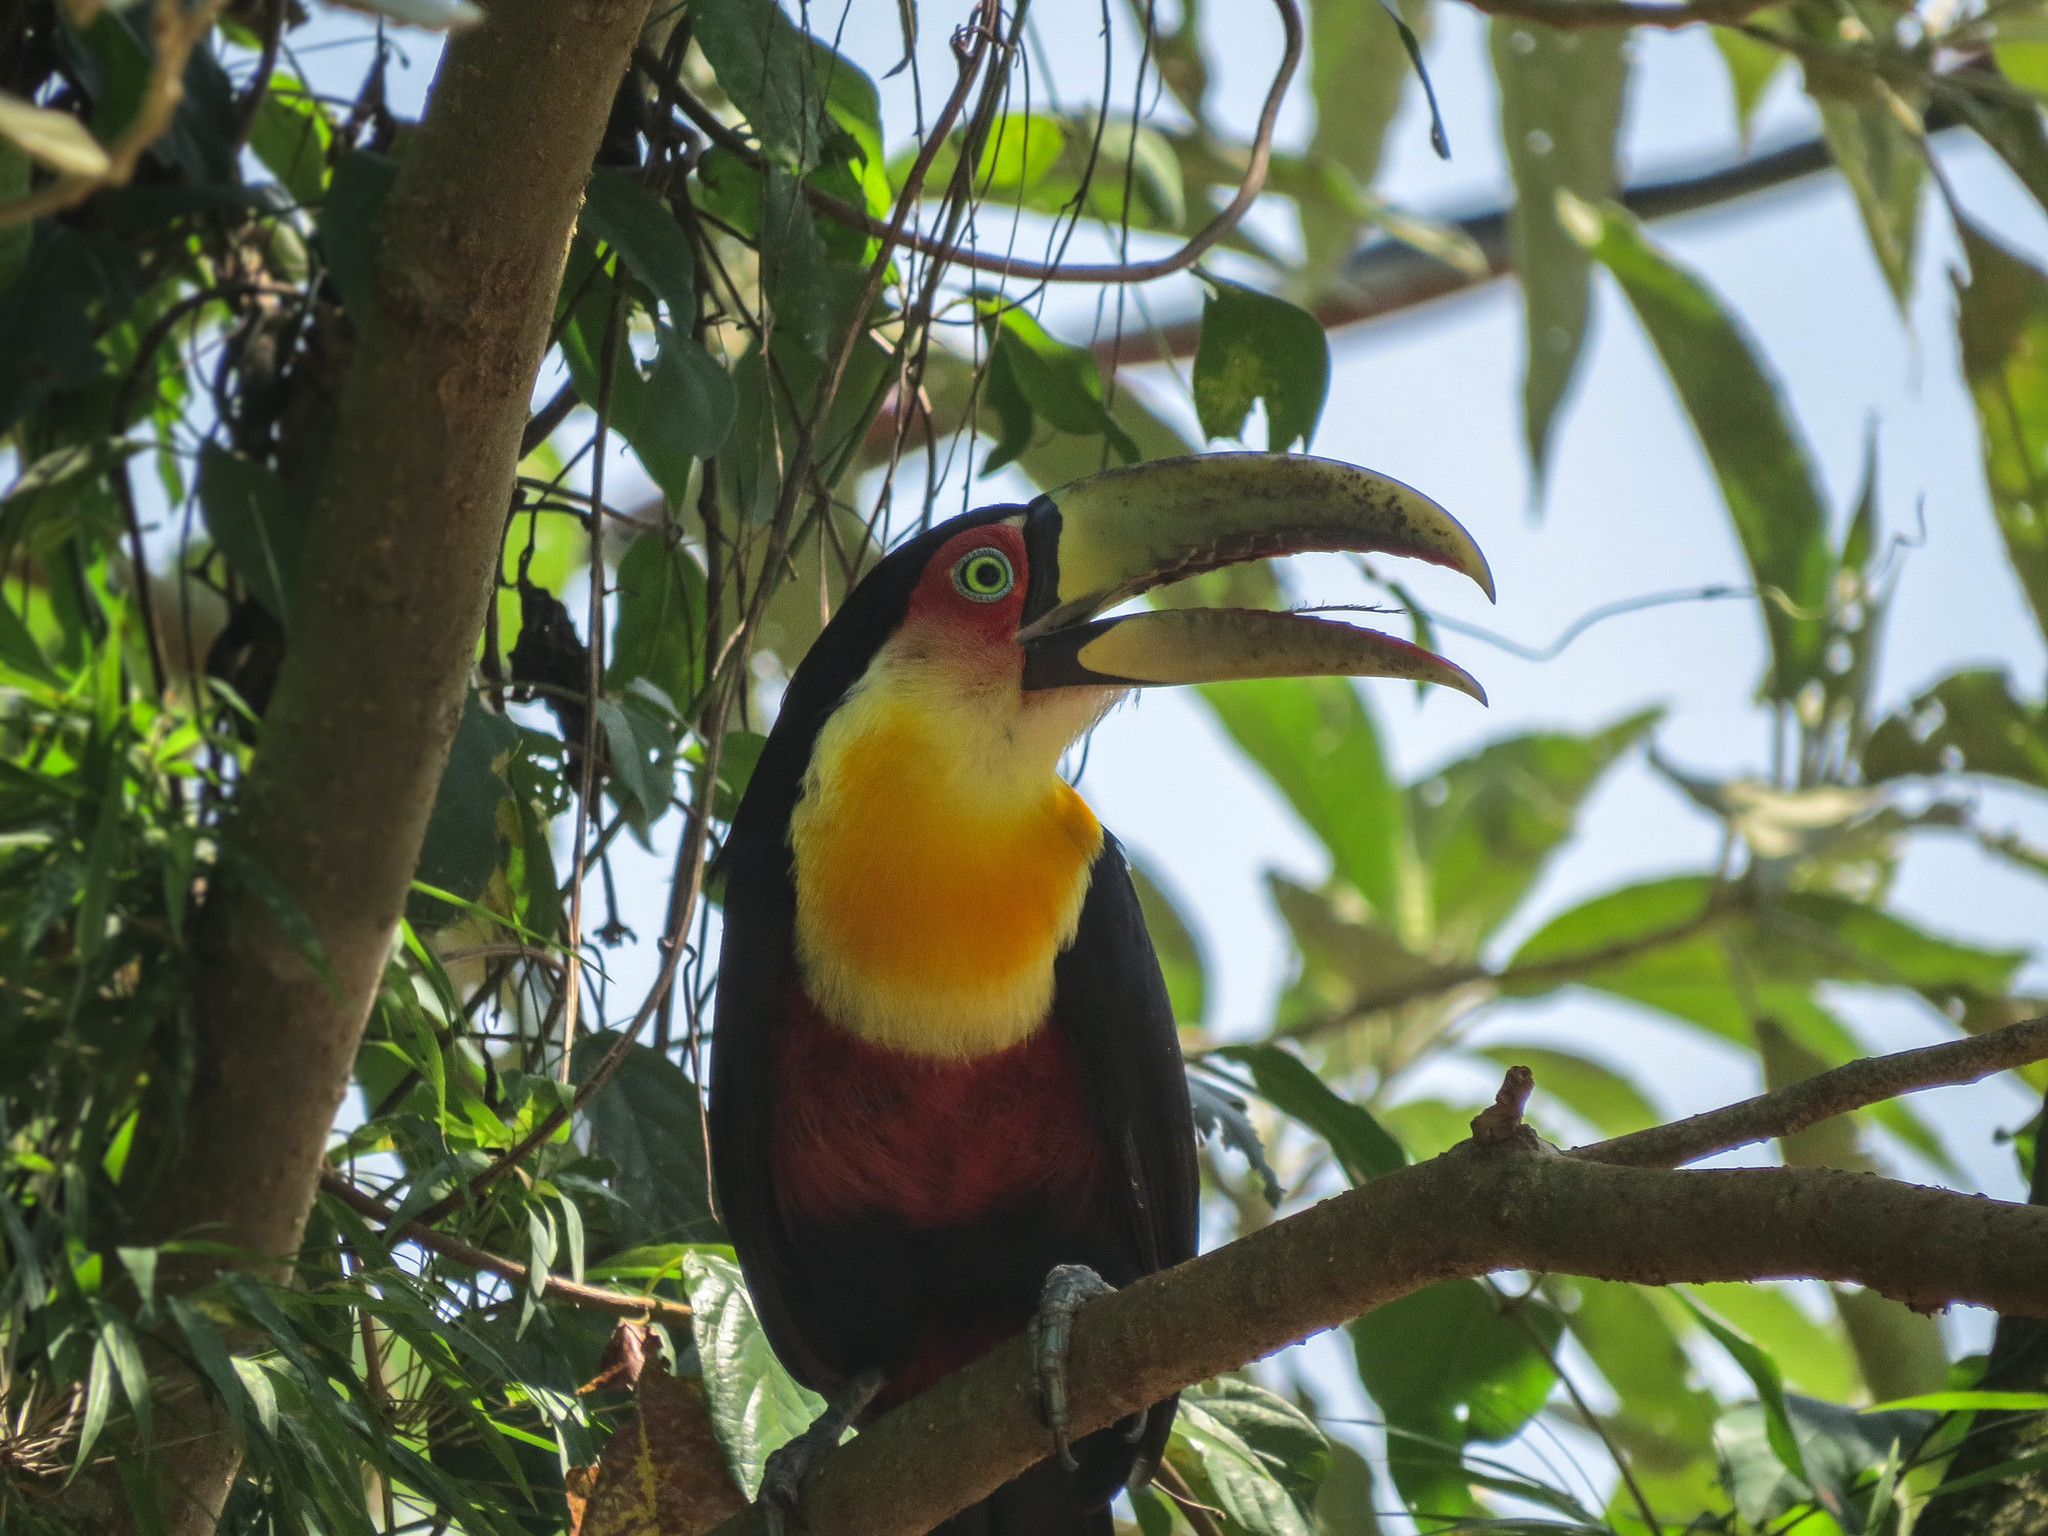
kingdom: Animalia
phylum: Chordata
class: Aves
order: Piciformes
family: Ramphastidae
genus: Ramphastos
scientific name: Ramphastos dicolorus
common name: Green-billed toucan
